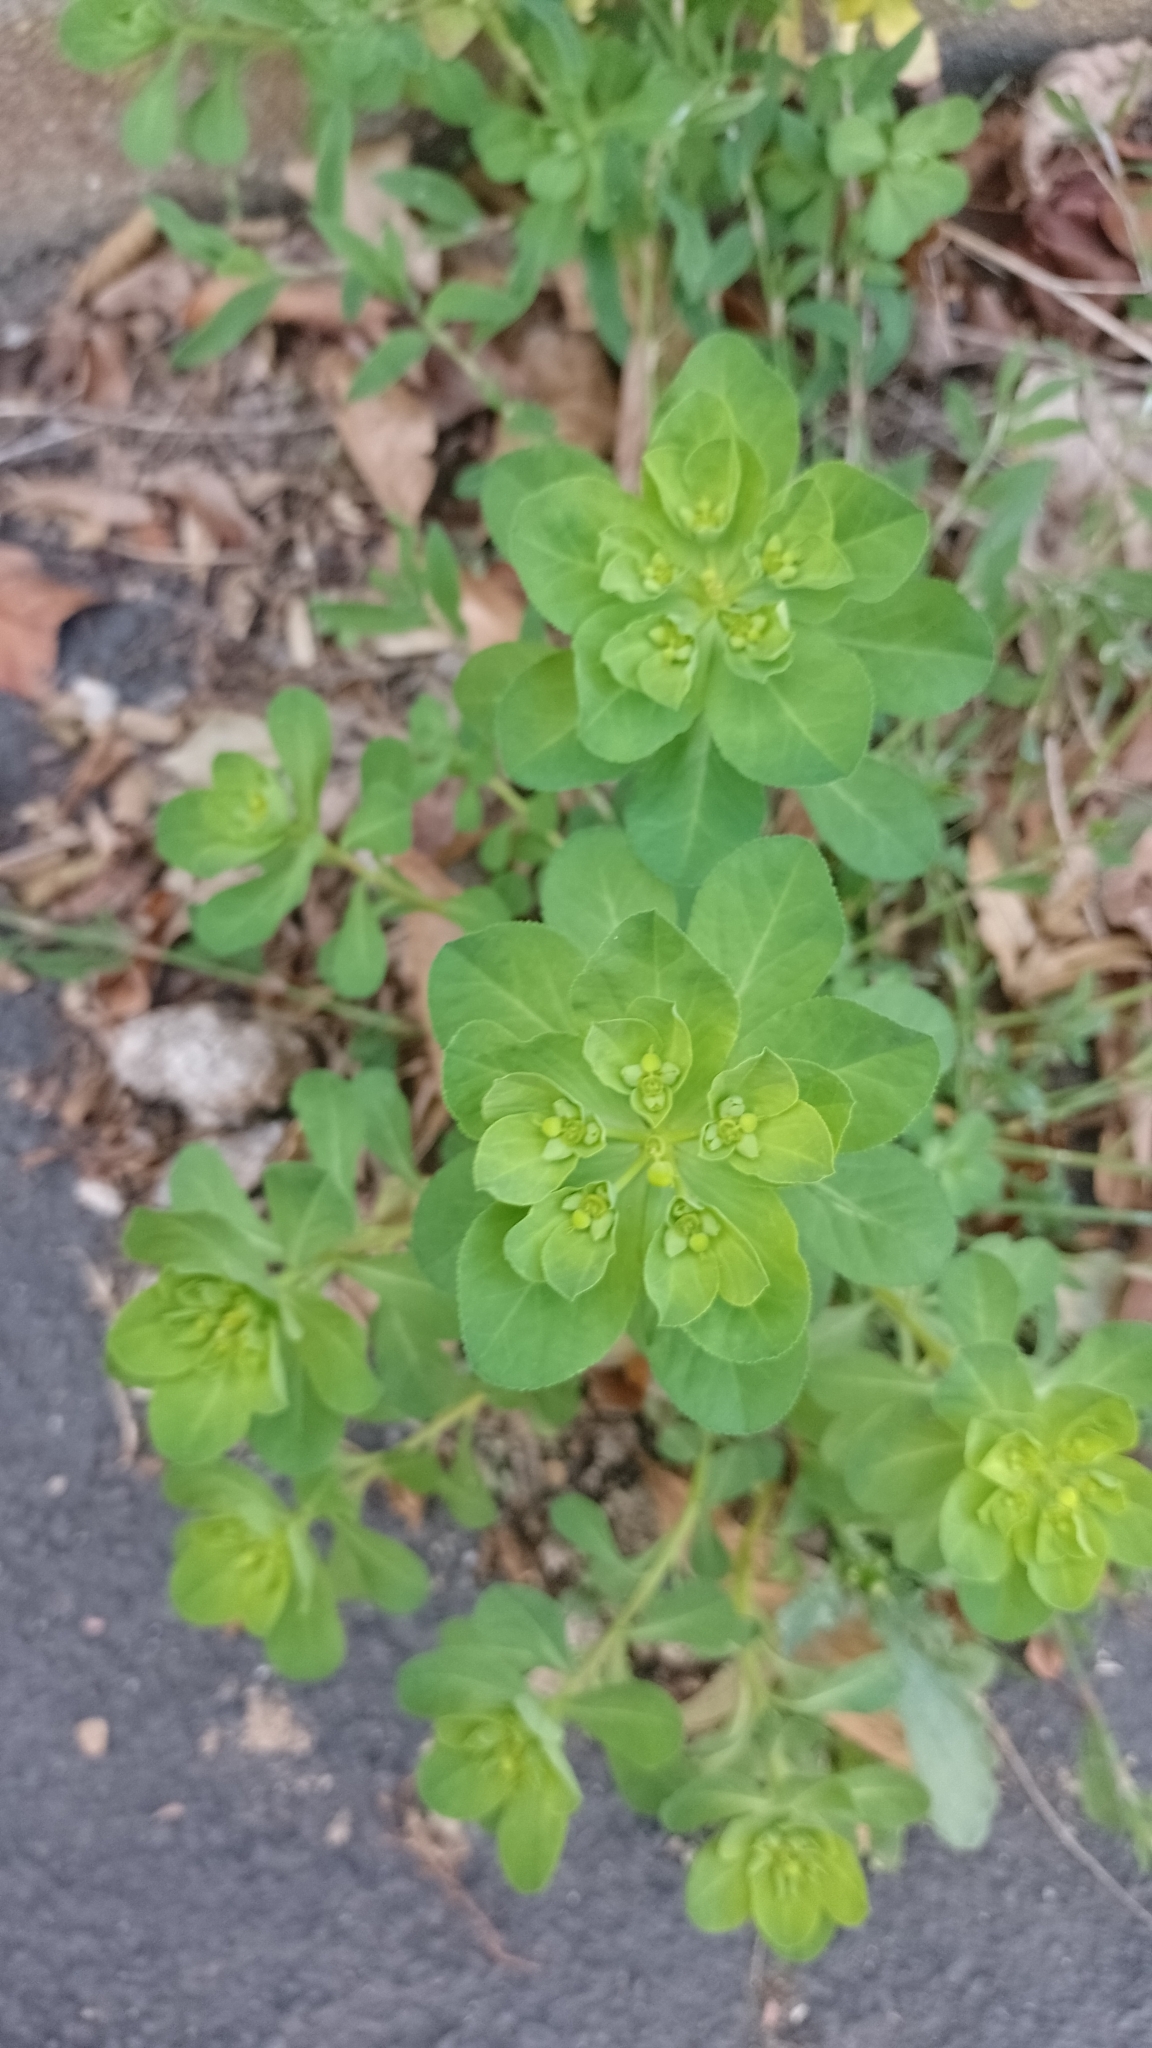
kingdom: Plantae
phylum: Tracheophyta
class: Magnoliopsida
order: Malpighiales
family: Euphorbiaceae
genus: Euphorbia
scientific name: Euphorbia helioscopia
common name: Sun spurge
